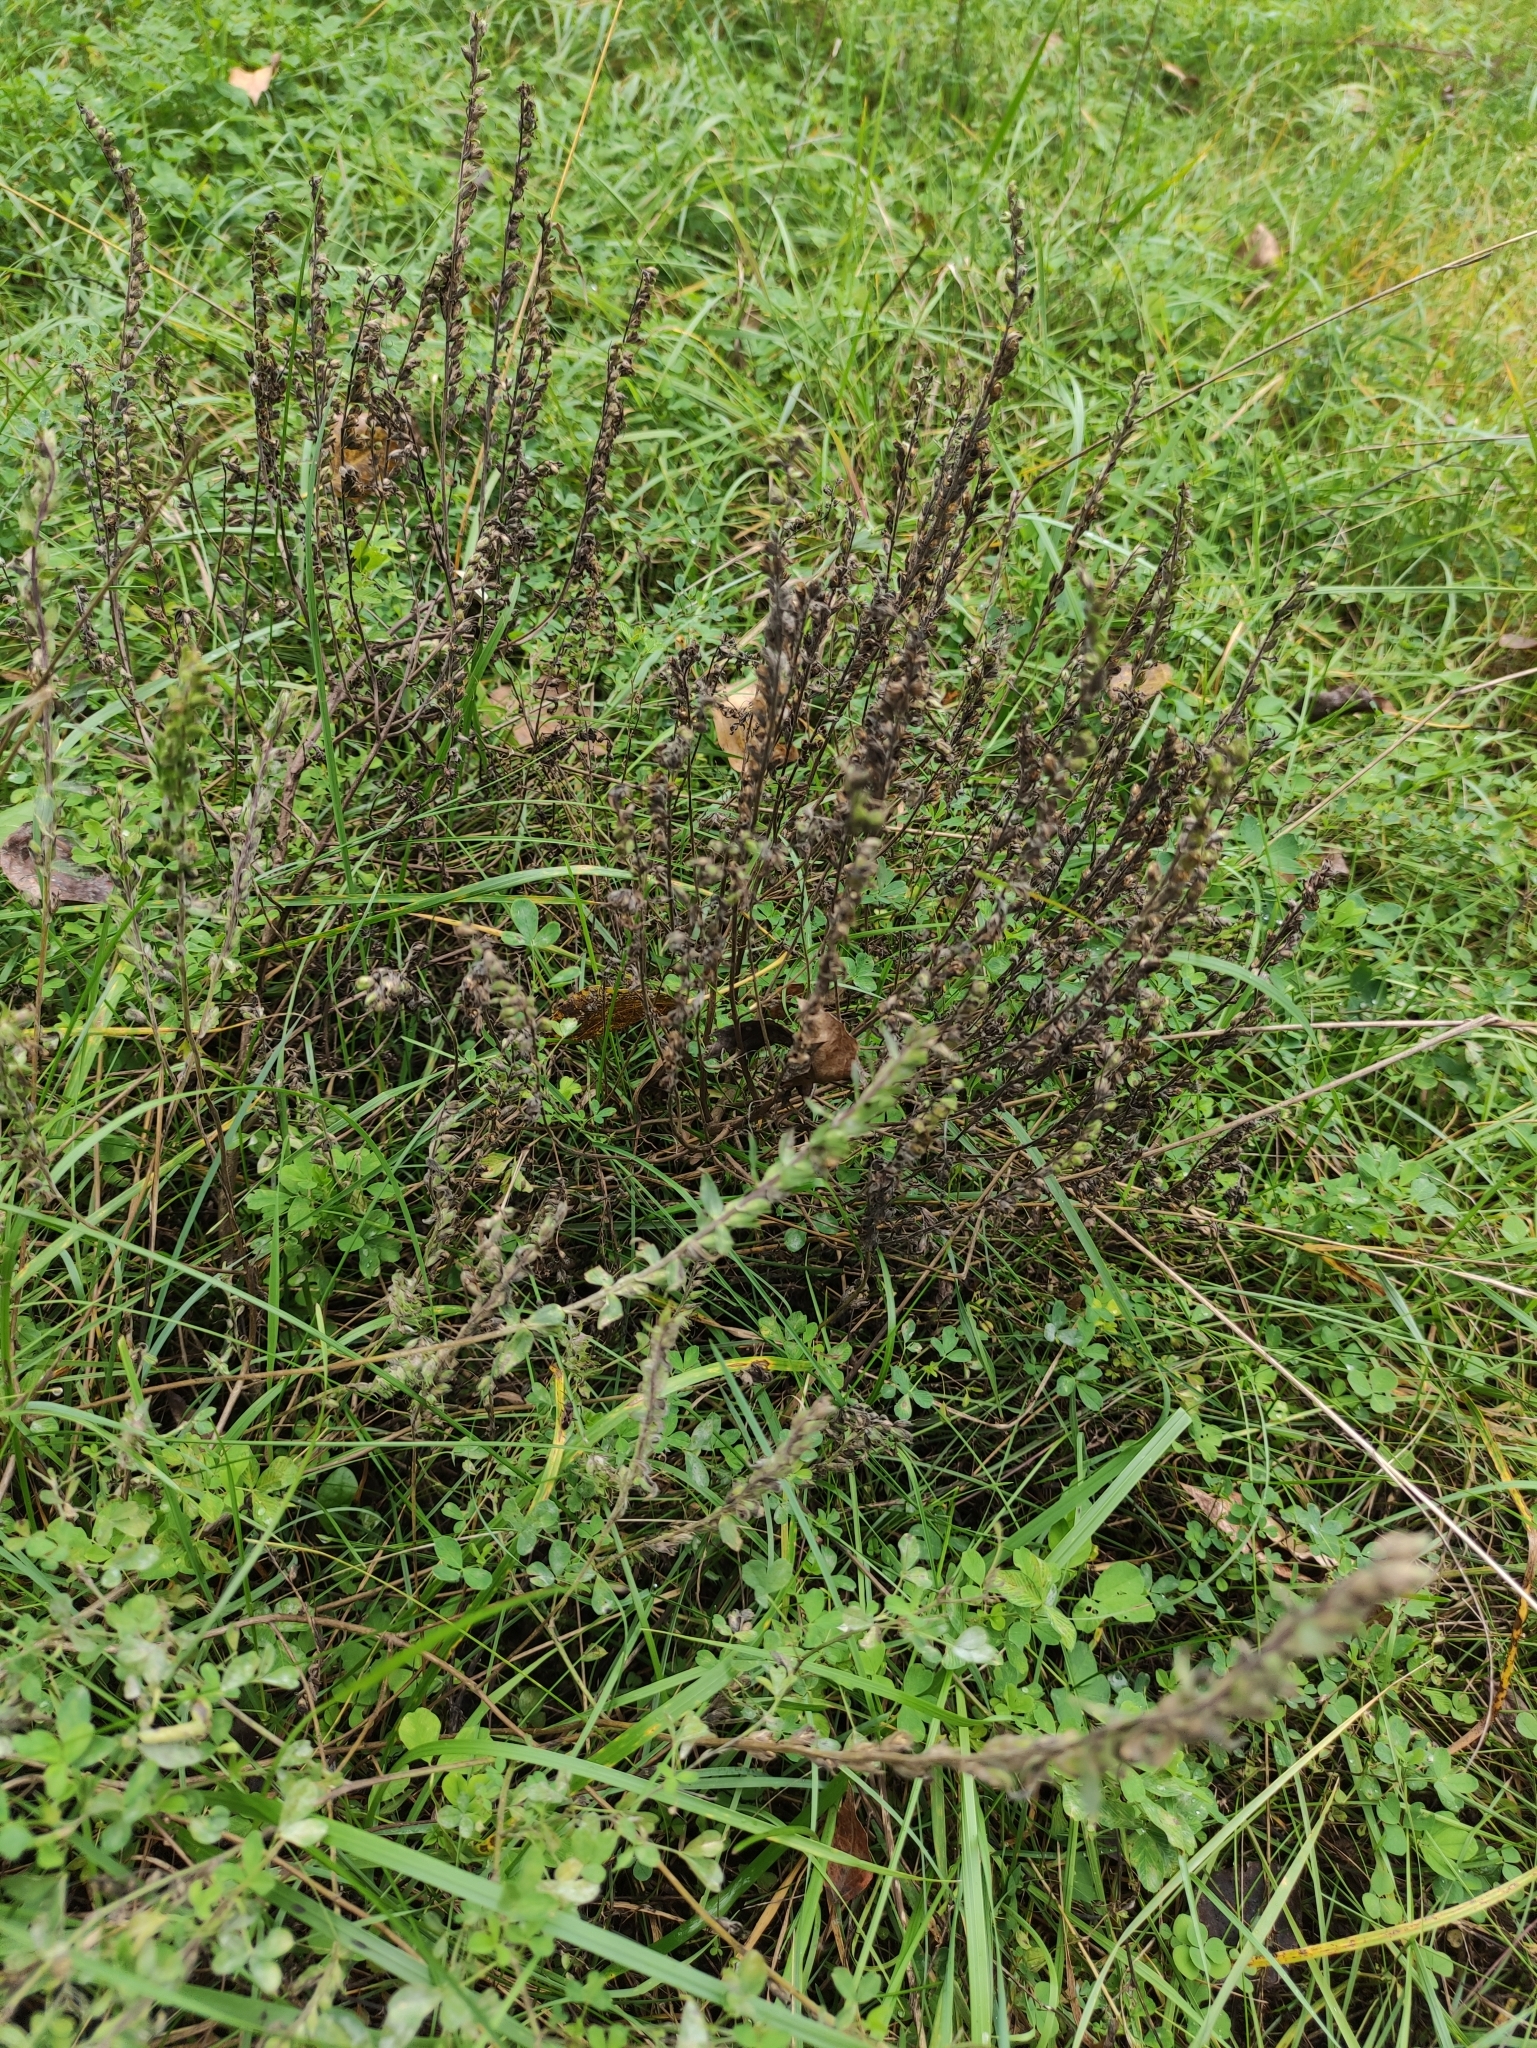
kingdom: Plantae
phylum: Tracheophyta
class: Magnoliopsida
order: Lamiales
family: Orobanchaceae
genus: Odontites
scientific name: Odontites vulgaris
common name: Broomrape
